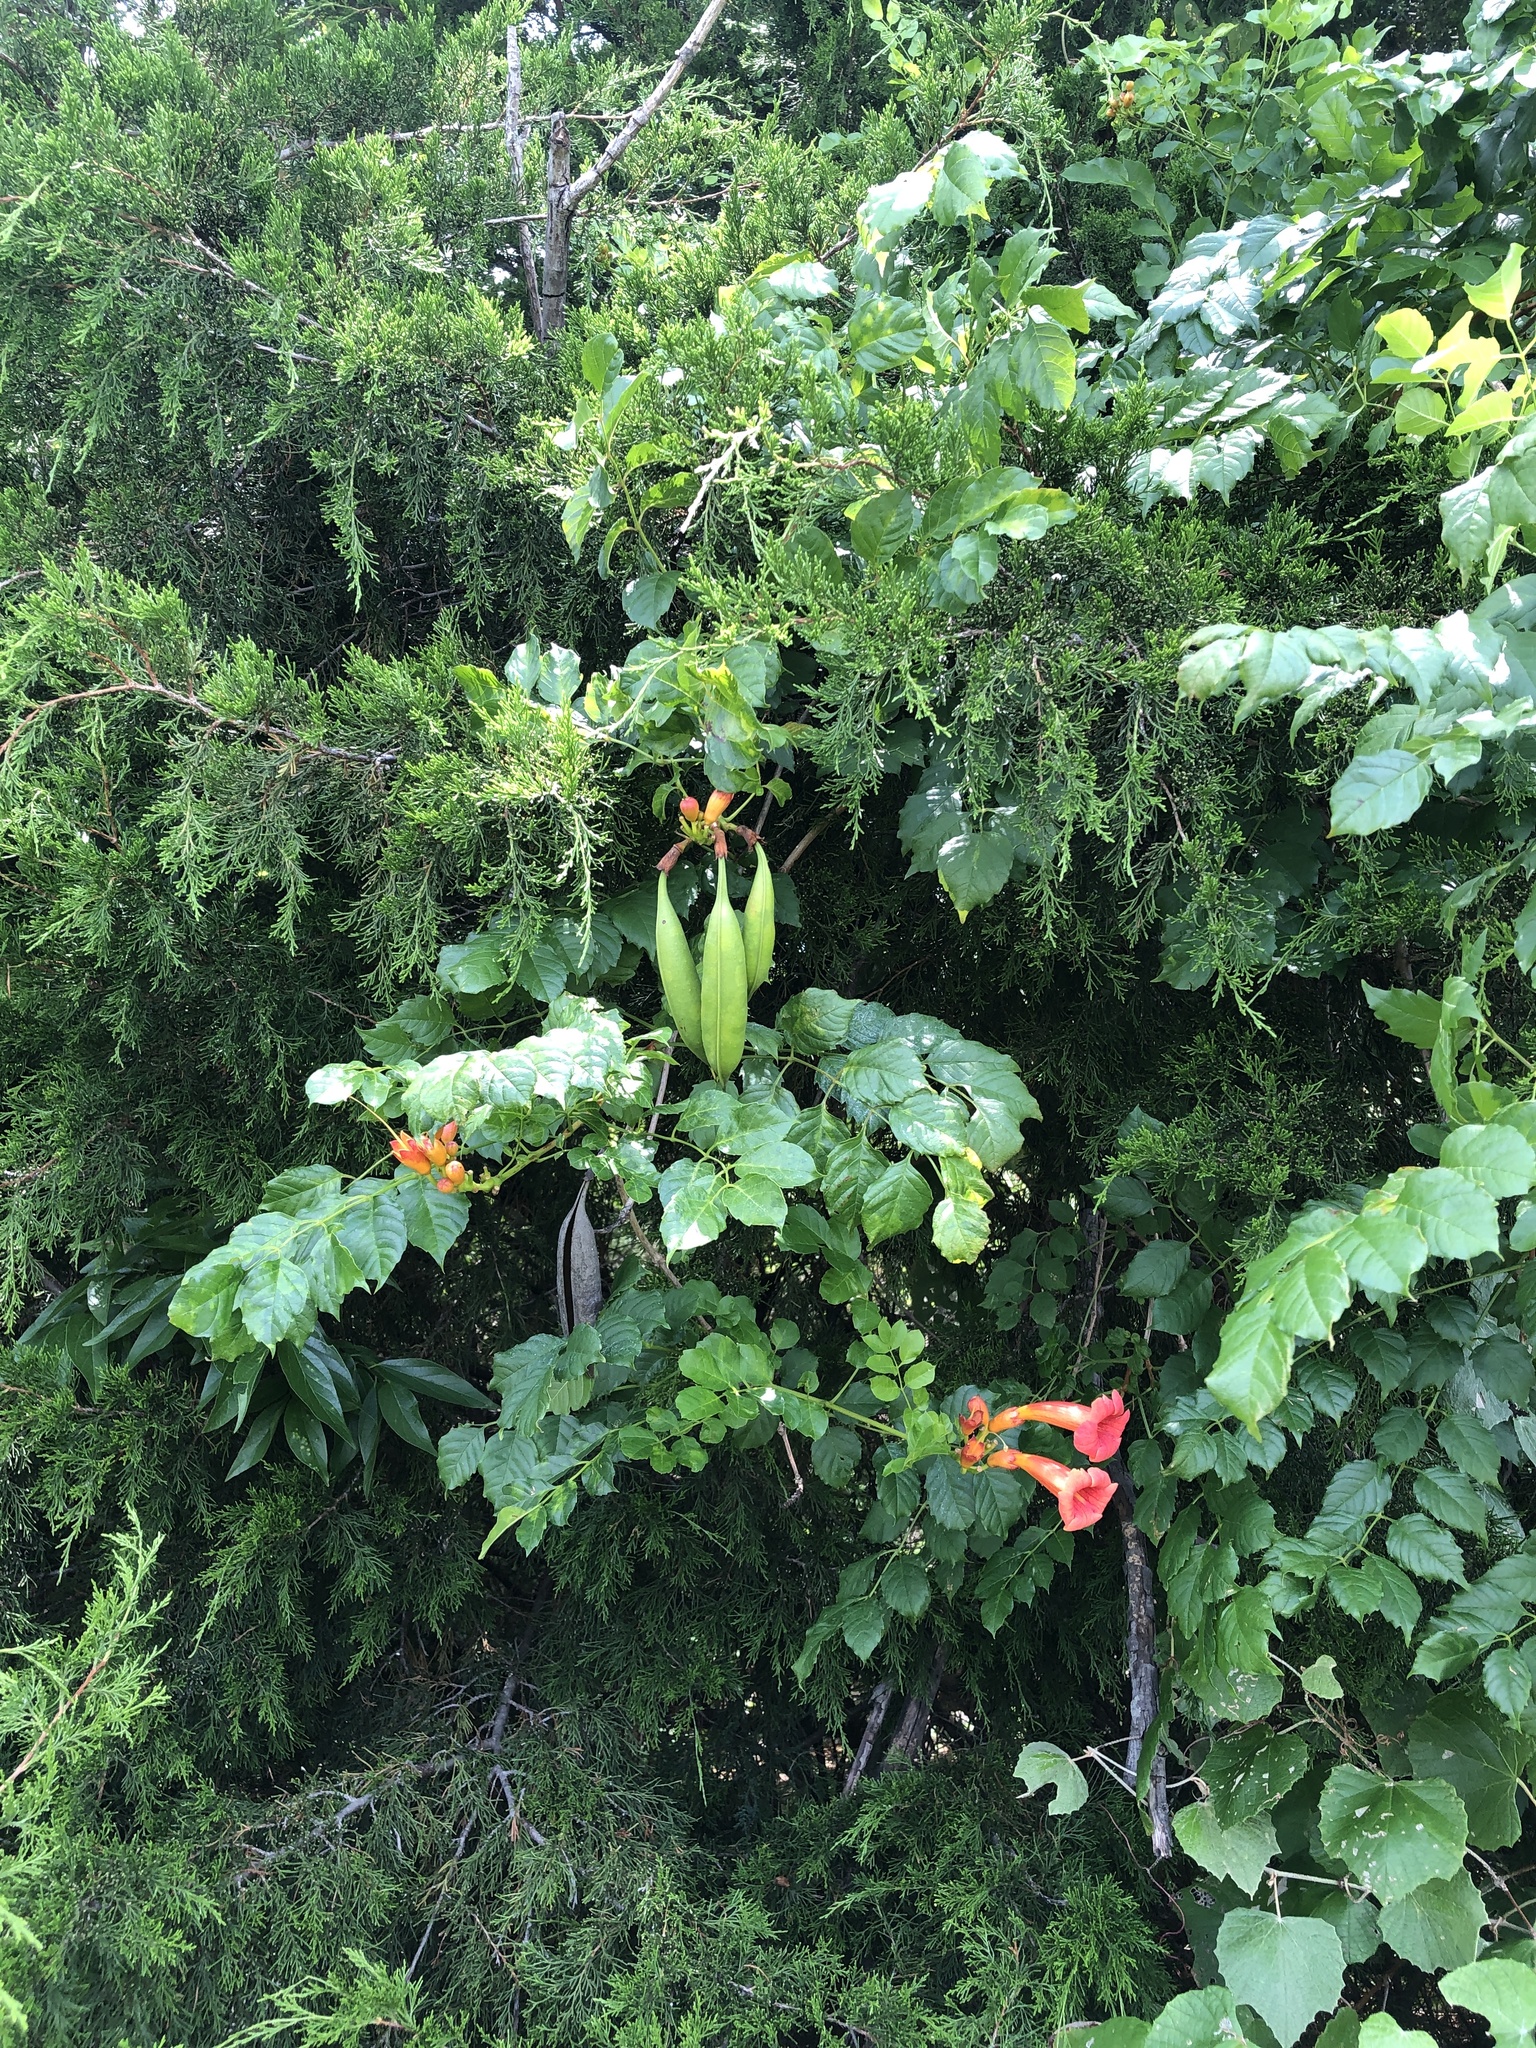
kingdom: Plantae
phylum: Tracheophyta
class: Magnoliopsida
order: Lamiales
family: Bignoniaceae
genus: Campsis
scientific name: Campsis radicans
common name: Trumpet-creeper
